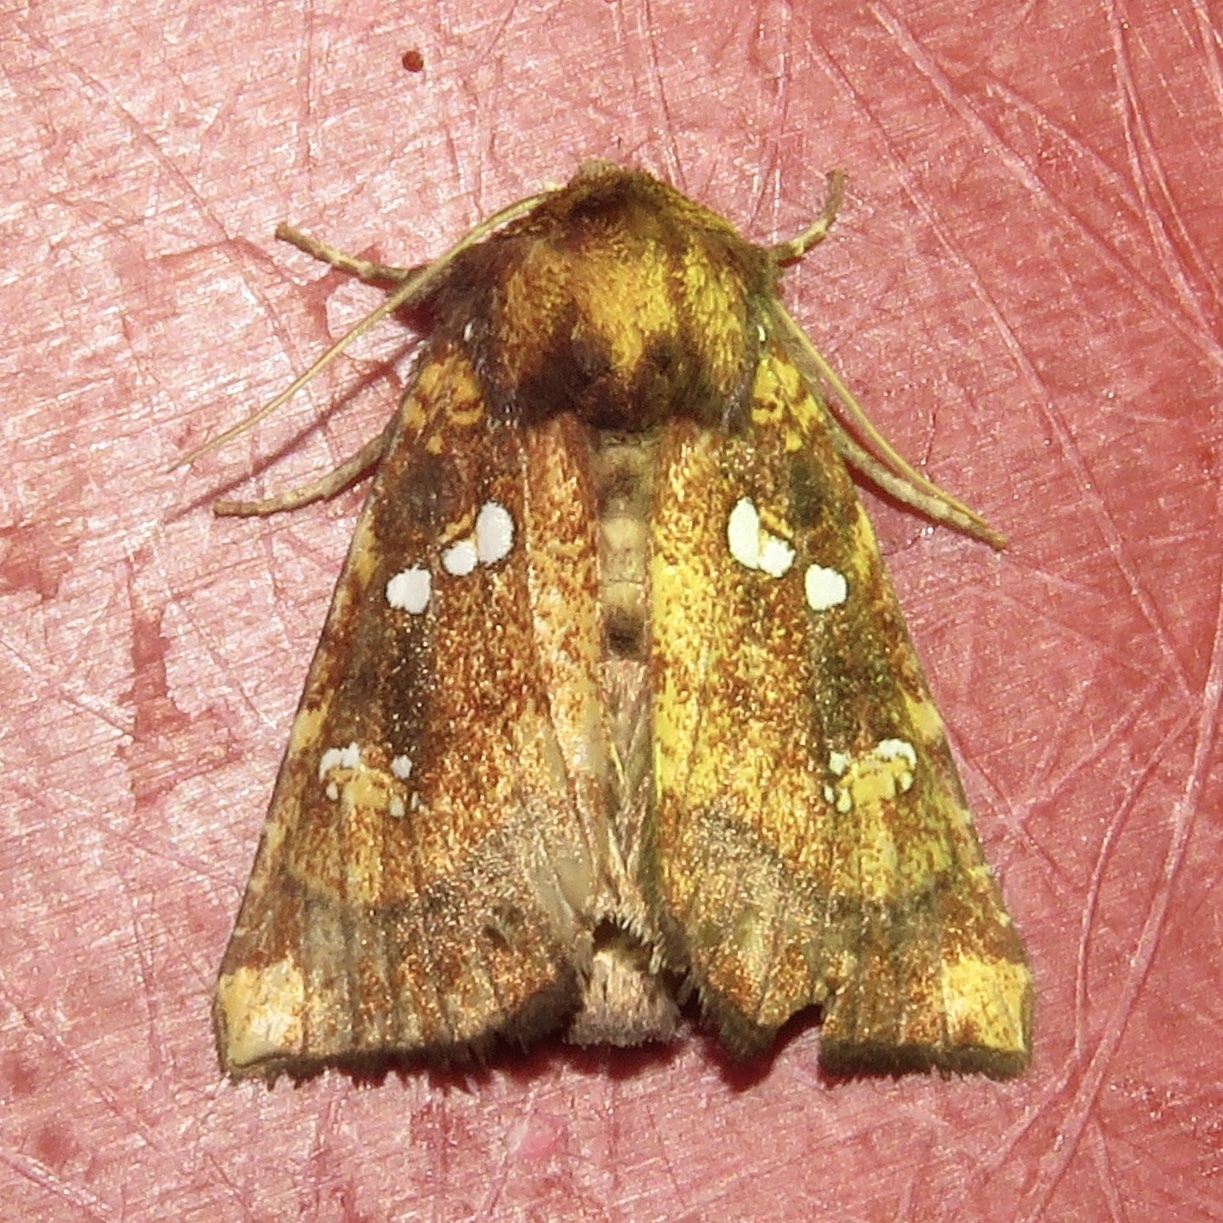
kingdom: Animalia
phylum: Arthropoda
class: Insecta
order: Lepidoptera
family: Noctuidae
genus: Papaipema
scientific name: Papaipema arctivorens
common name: Northern burdock borer moth
